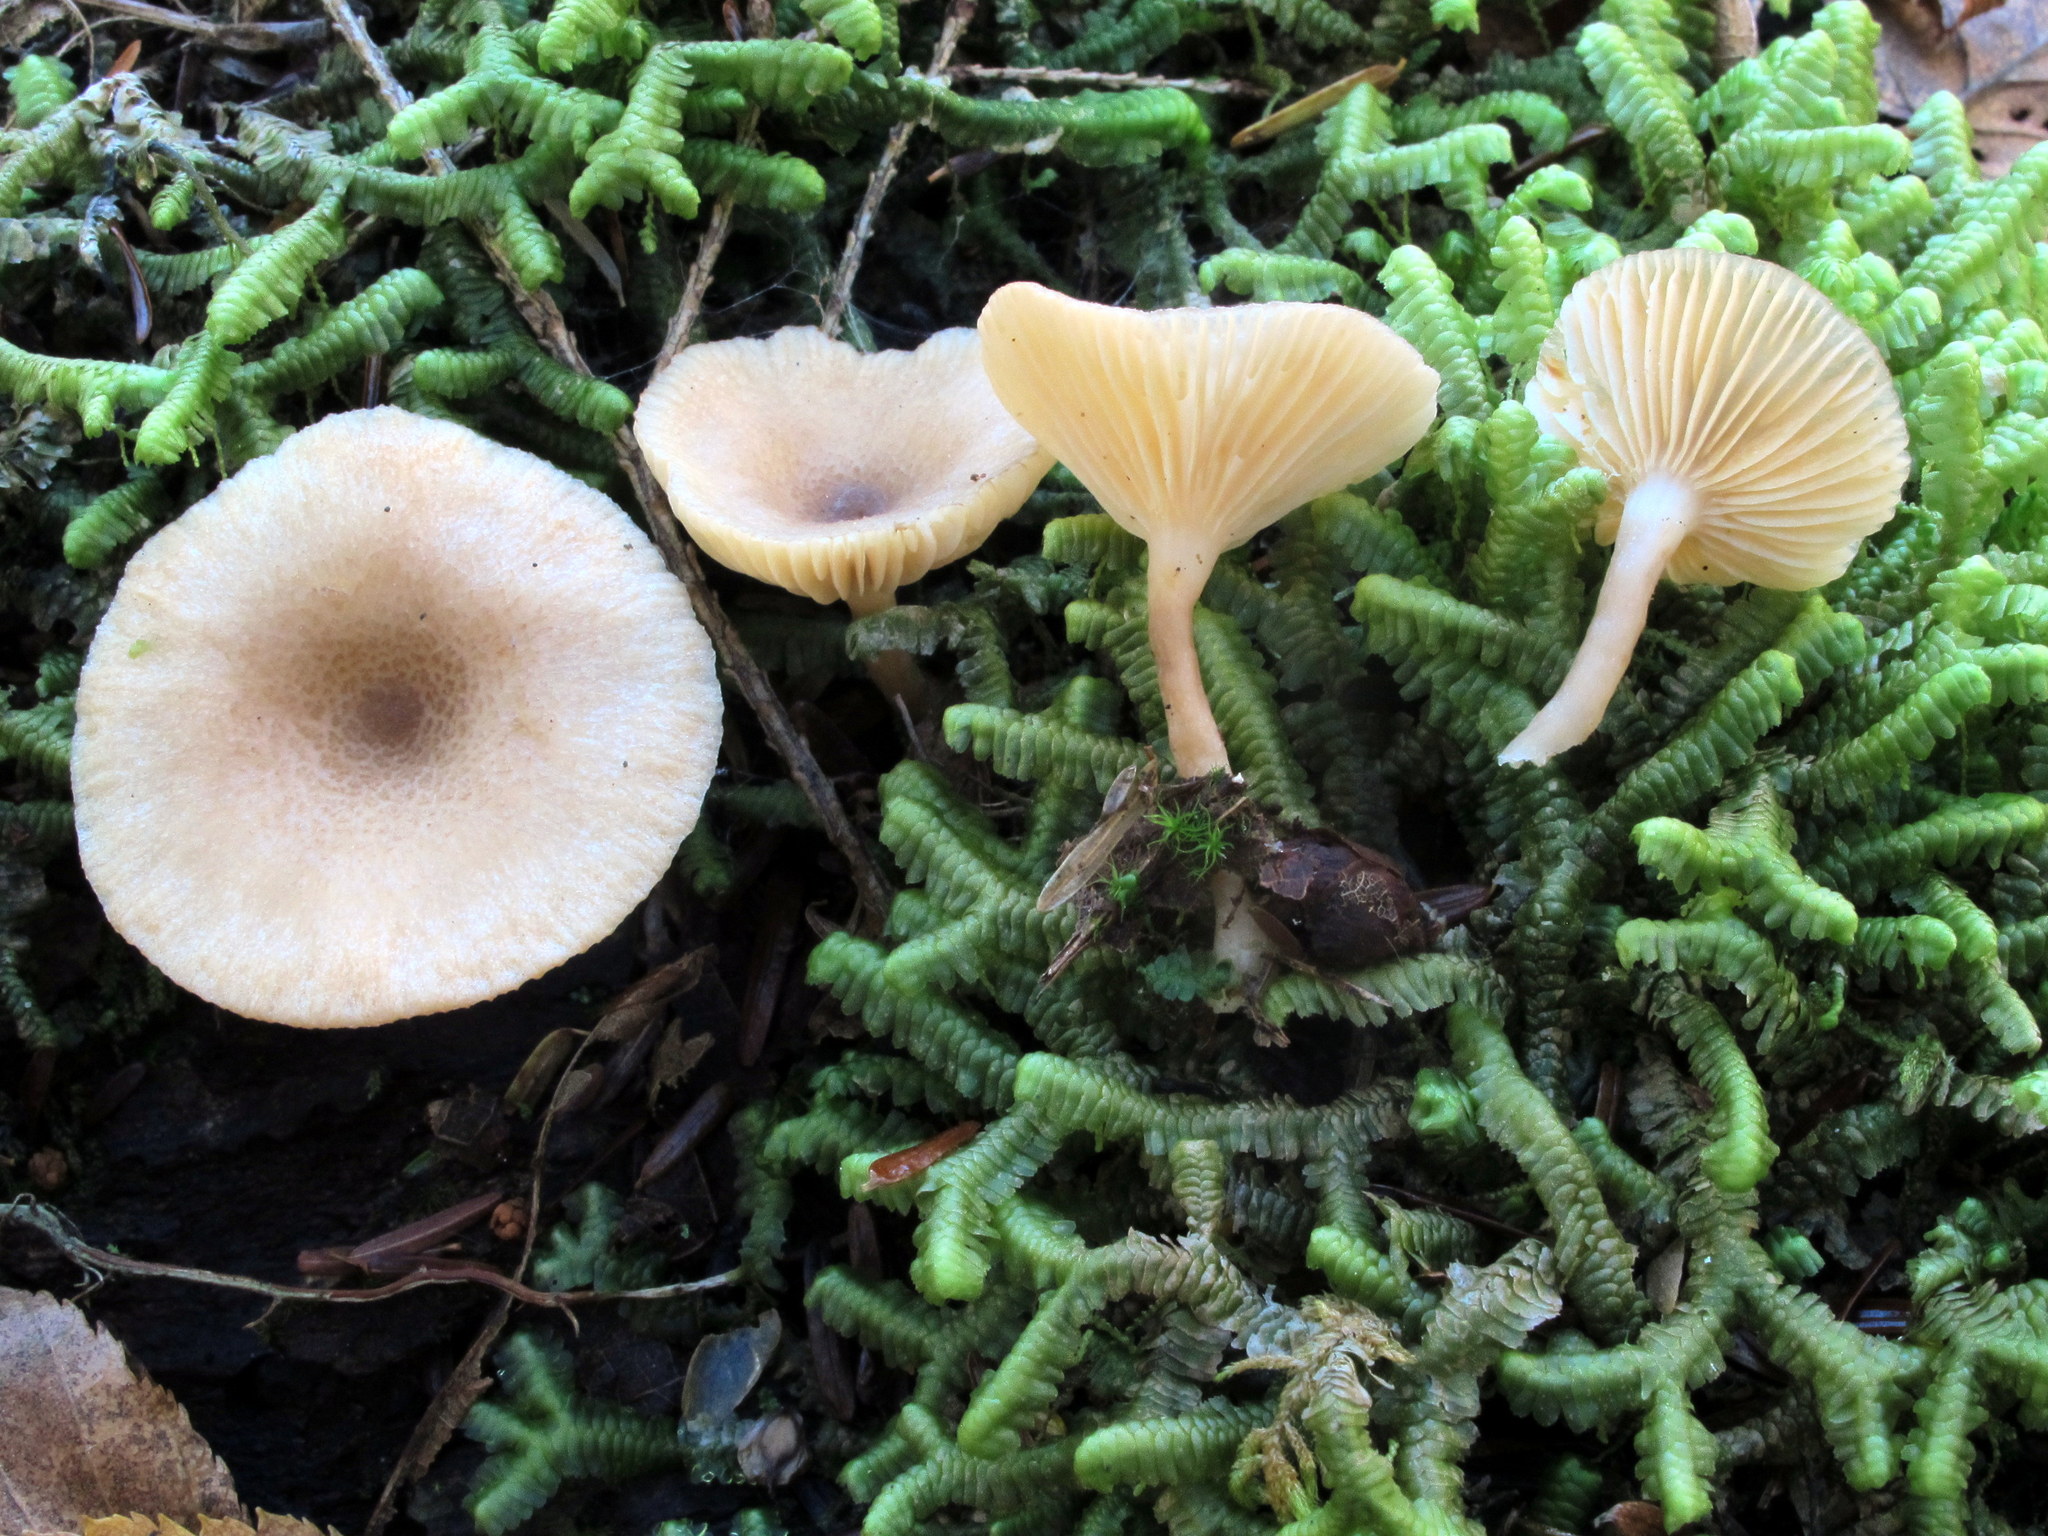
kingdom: Fungi
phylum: Basidiomycota
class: Agaricomycetes
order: Russulales
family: Russulaceae
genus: Lactarius
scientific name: Lactarius griseus
